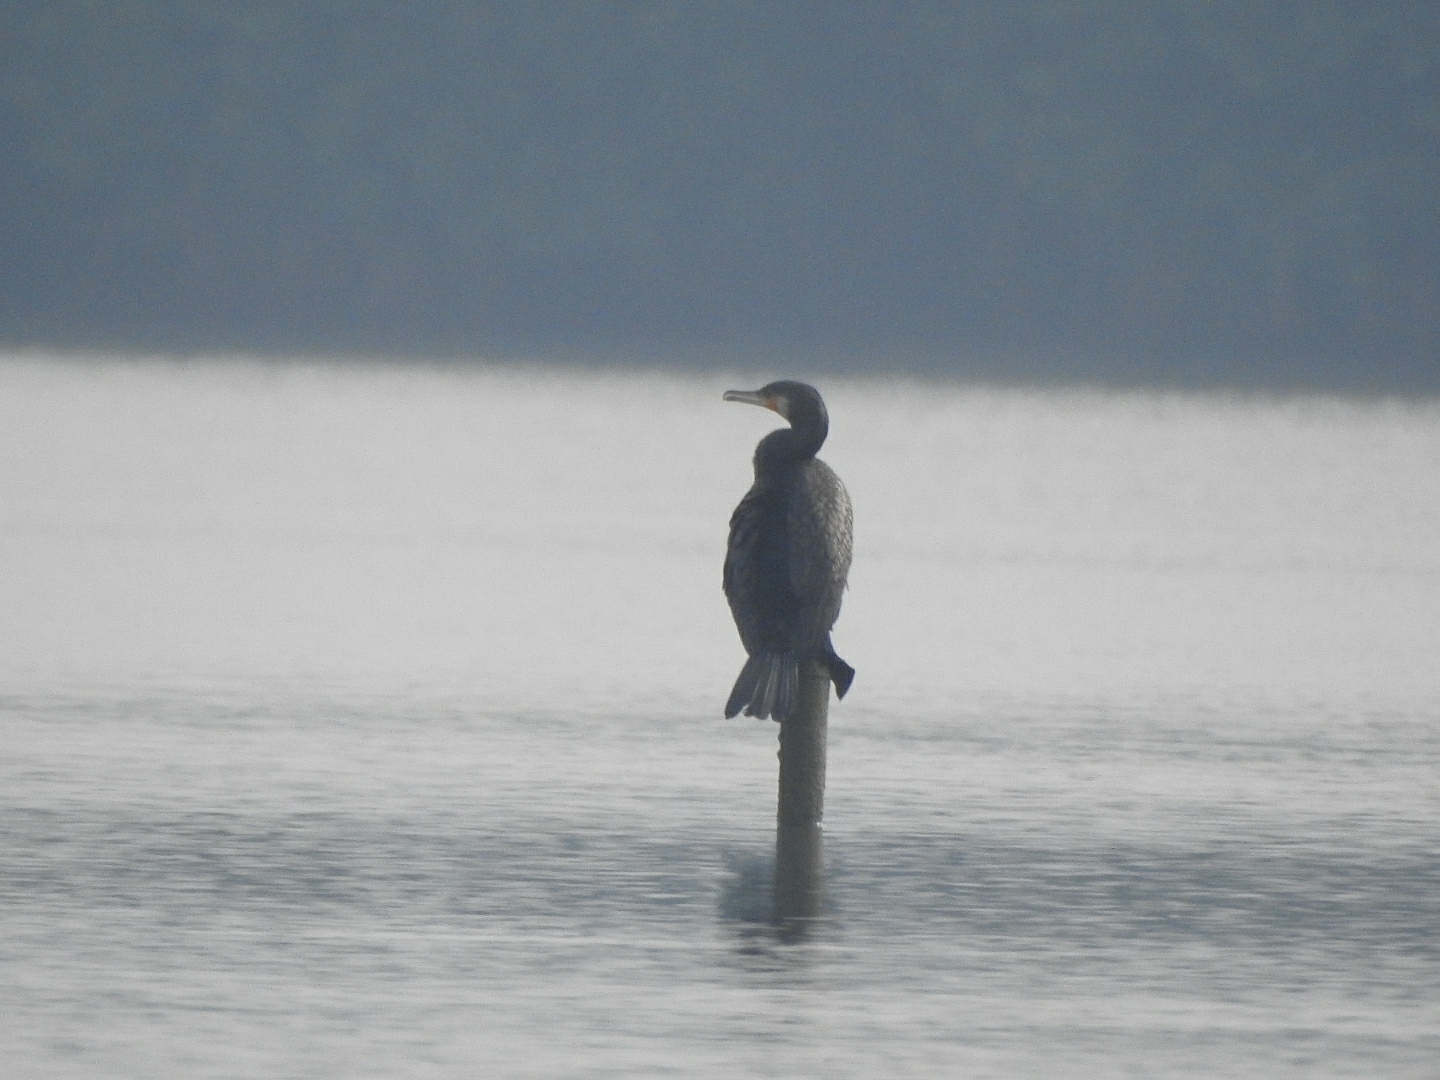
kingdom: Animalia
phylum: Chordata
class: Aves
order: Suliformes
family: Phalacrocoracidae
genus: Phalacrocorax
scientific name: Phalacrocorax carbo
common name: Great cormorant
